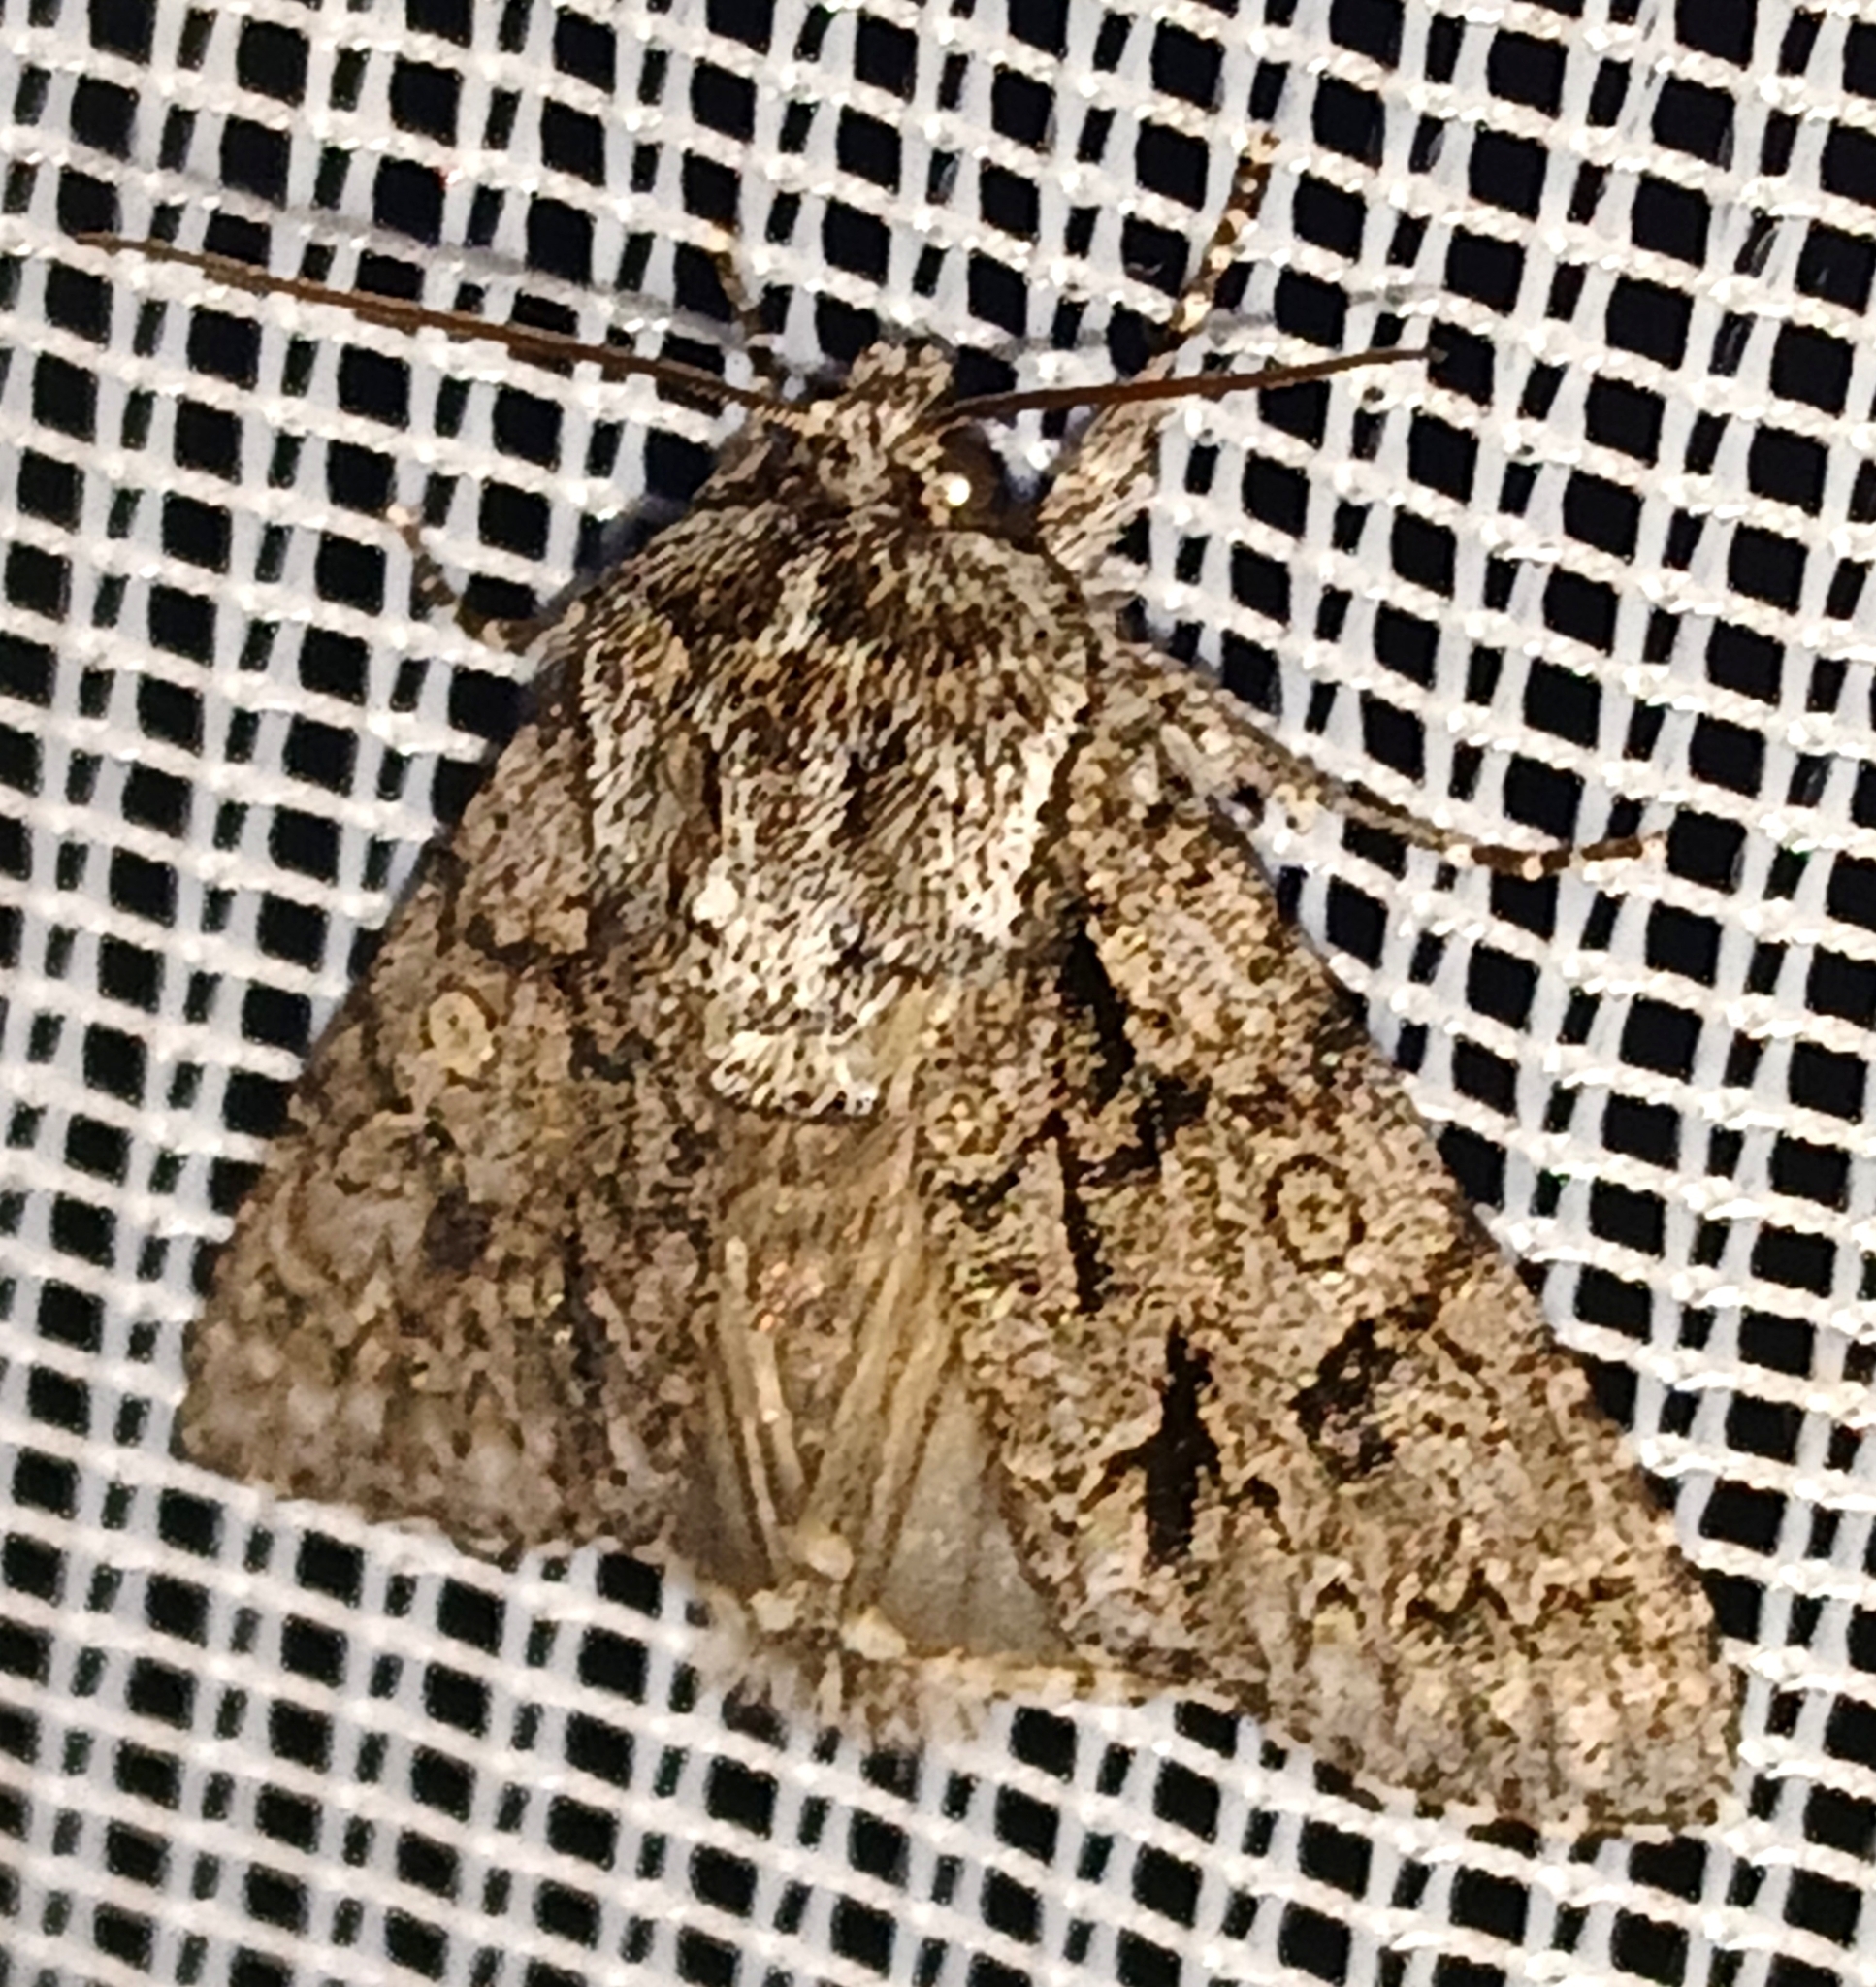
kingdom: Animalia
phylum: Arthropoda
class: Insecta
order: Lepidoptera
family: Noctuidae
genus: Acronicta
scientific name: Acronicta auricoma
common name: Scarce dagger
